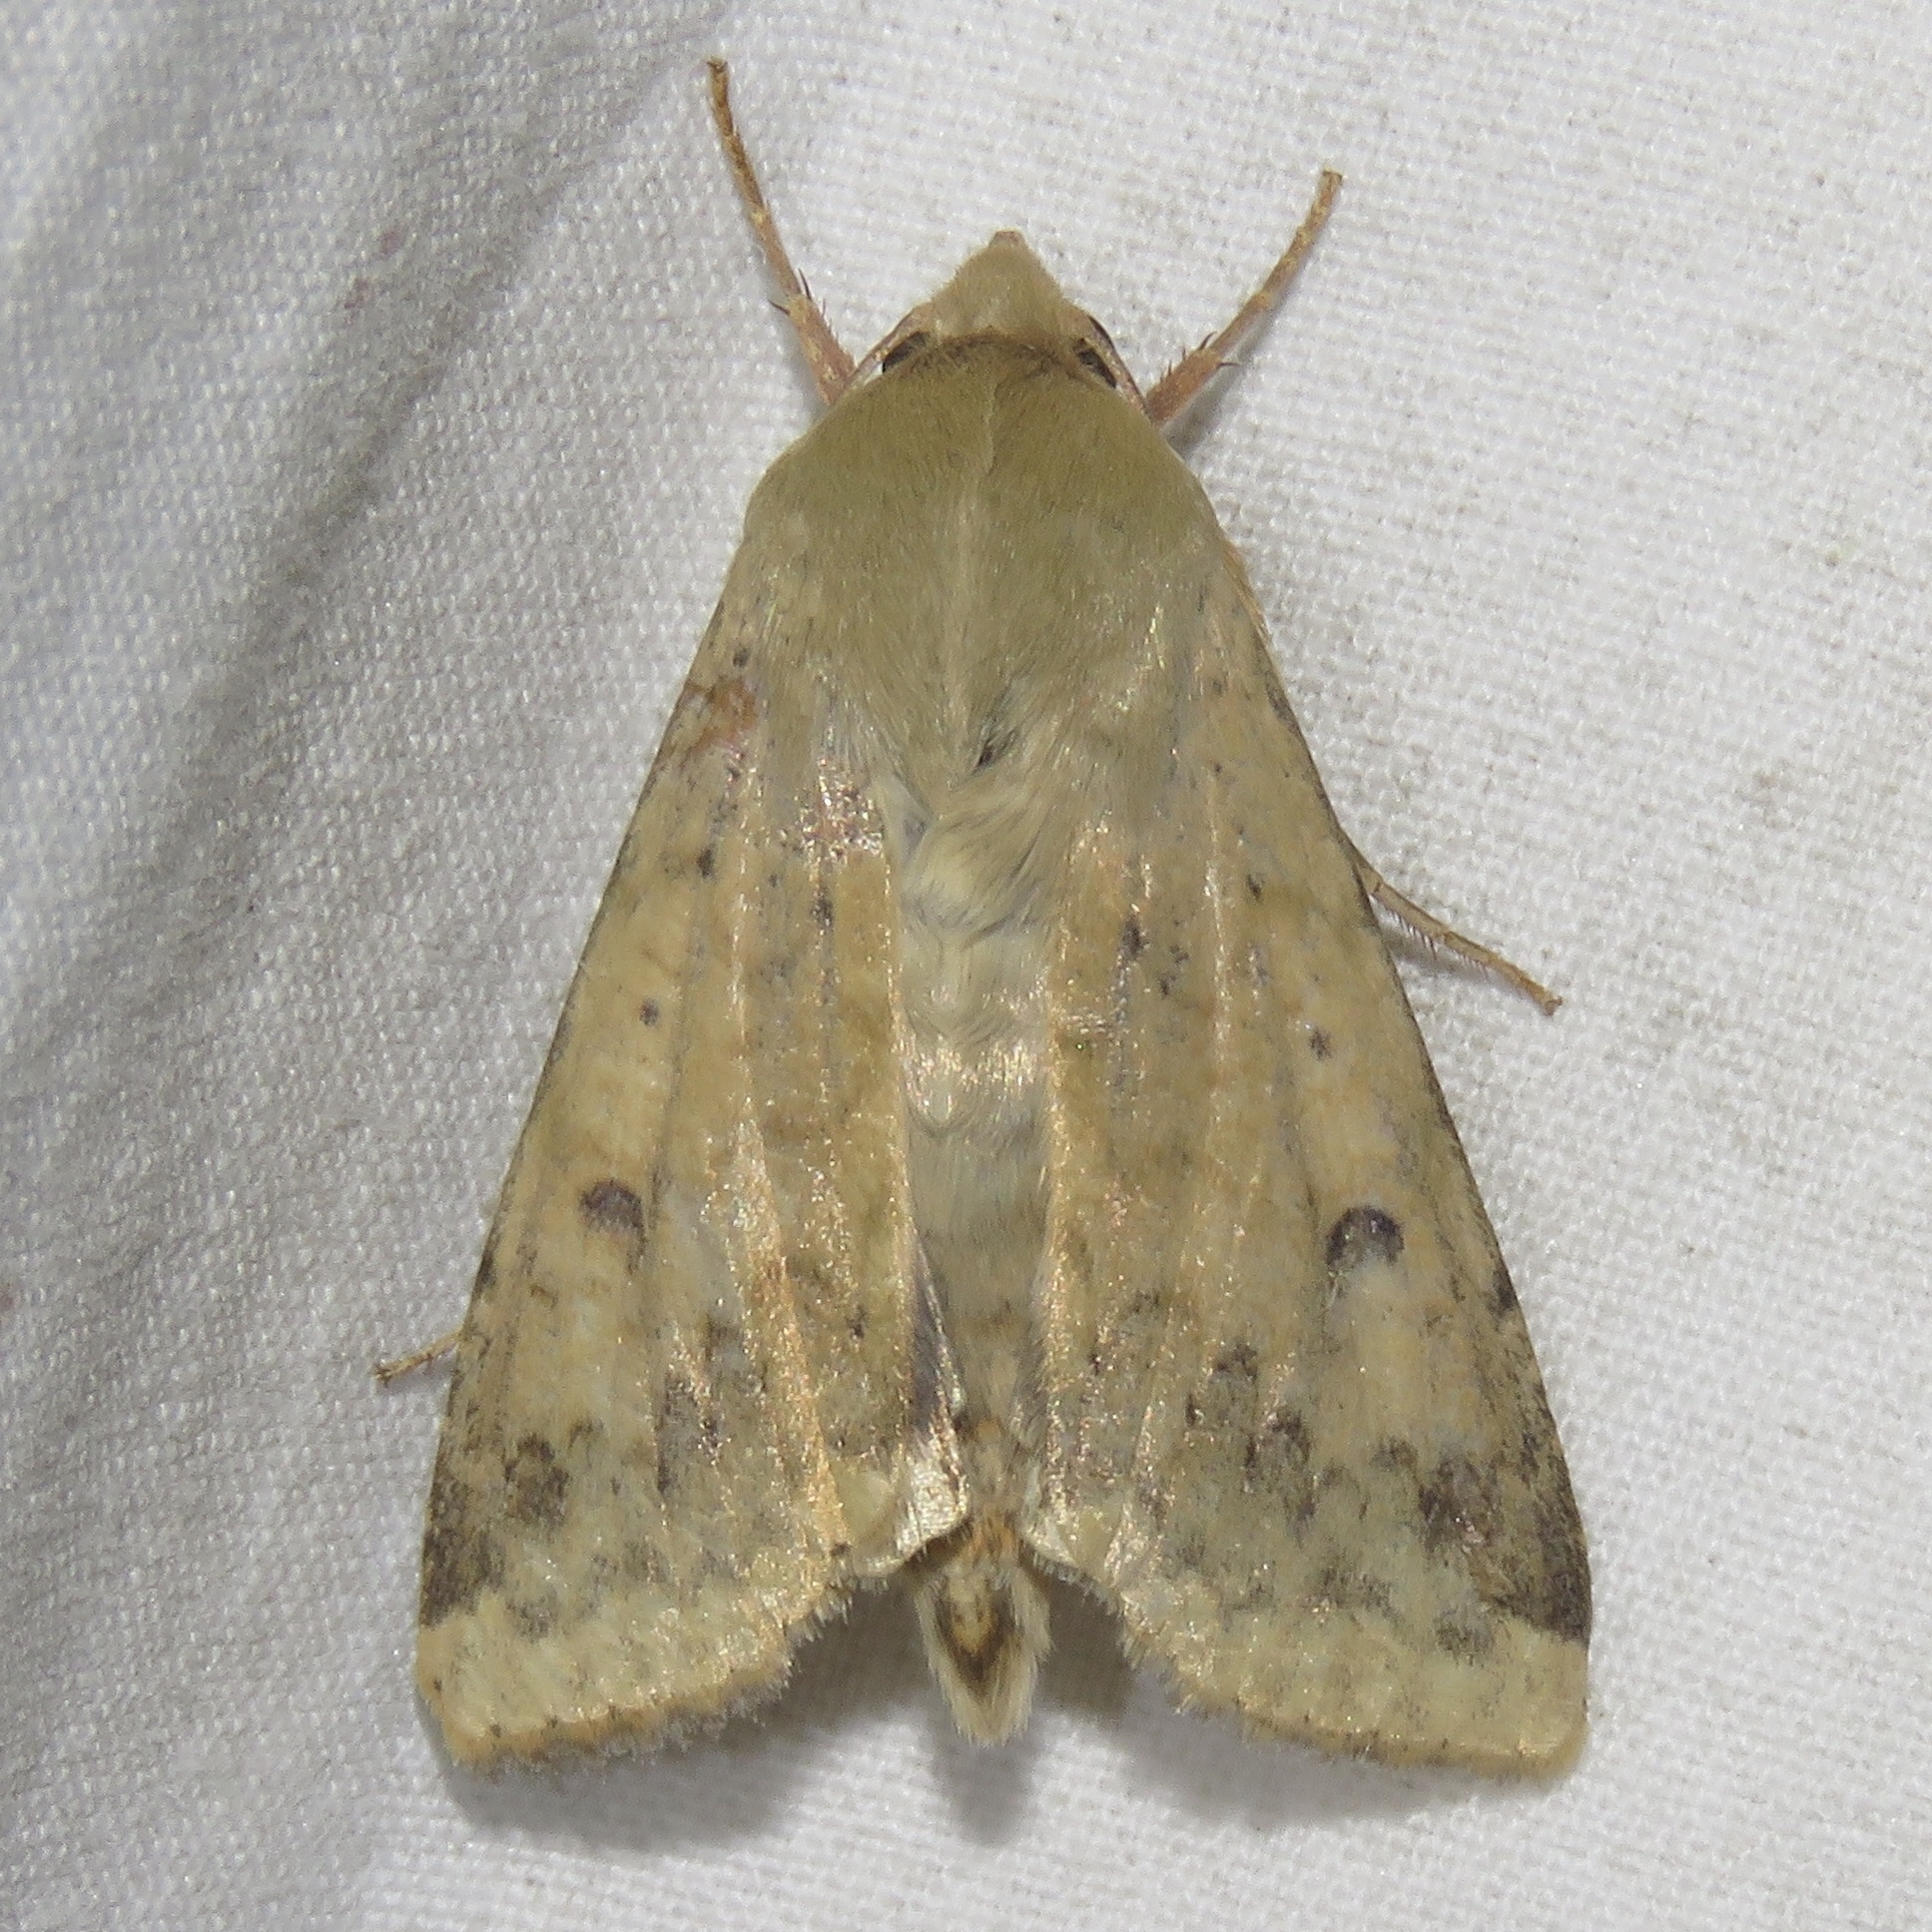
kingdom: Animalia
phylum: Arthropoda
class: Insecta
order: Lepidoptera
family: Noctuidae
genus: Helicoverpa
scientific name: Helicoverpa zea
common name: Bollworm
